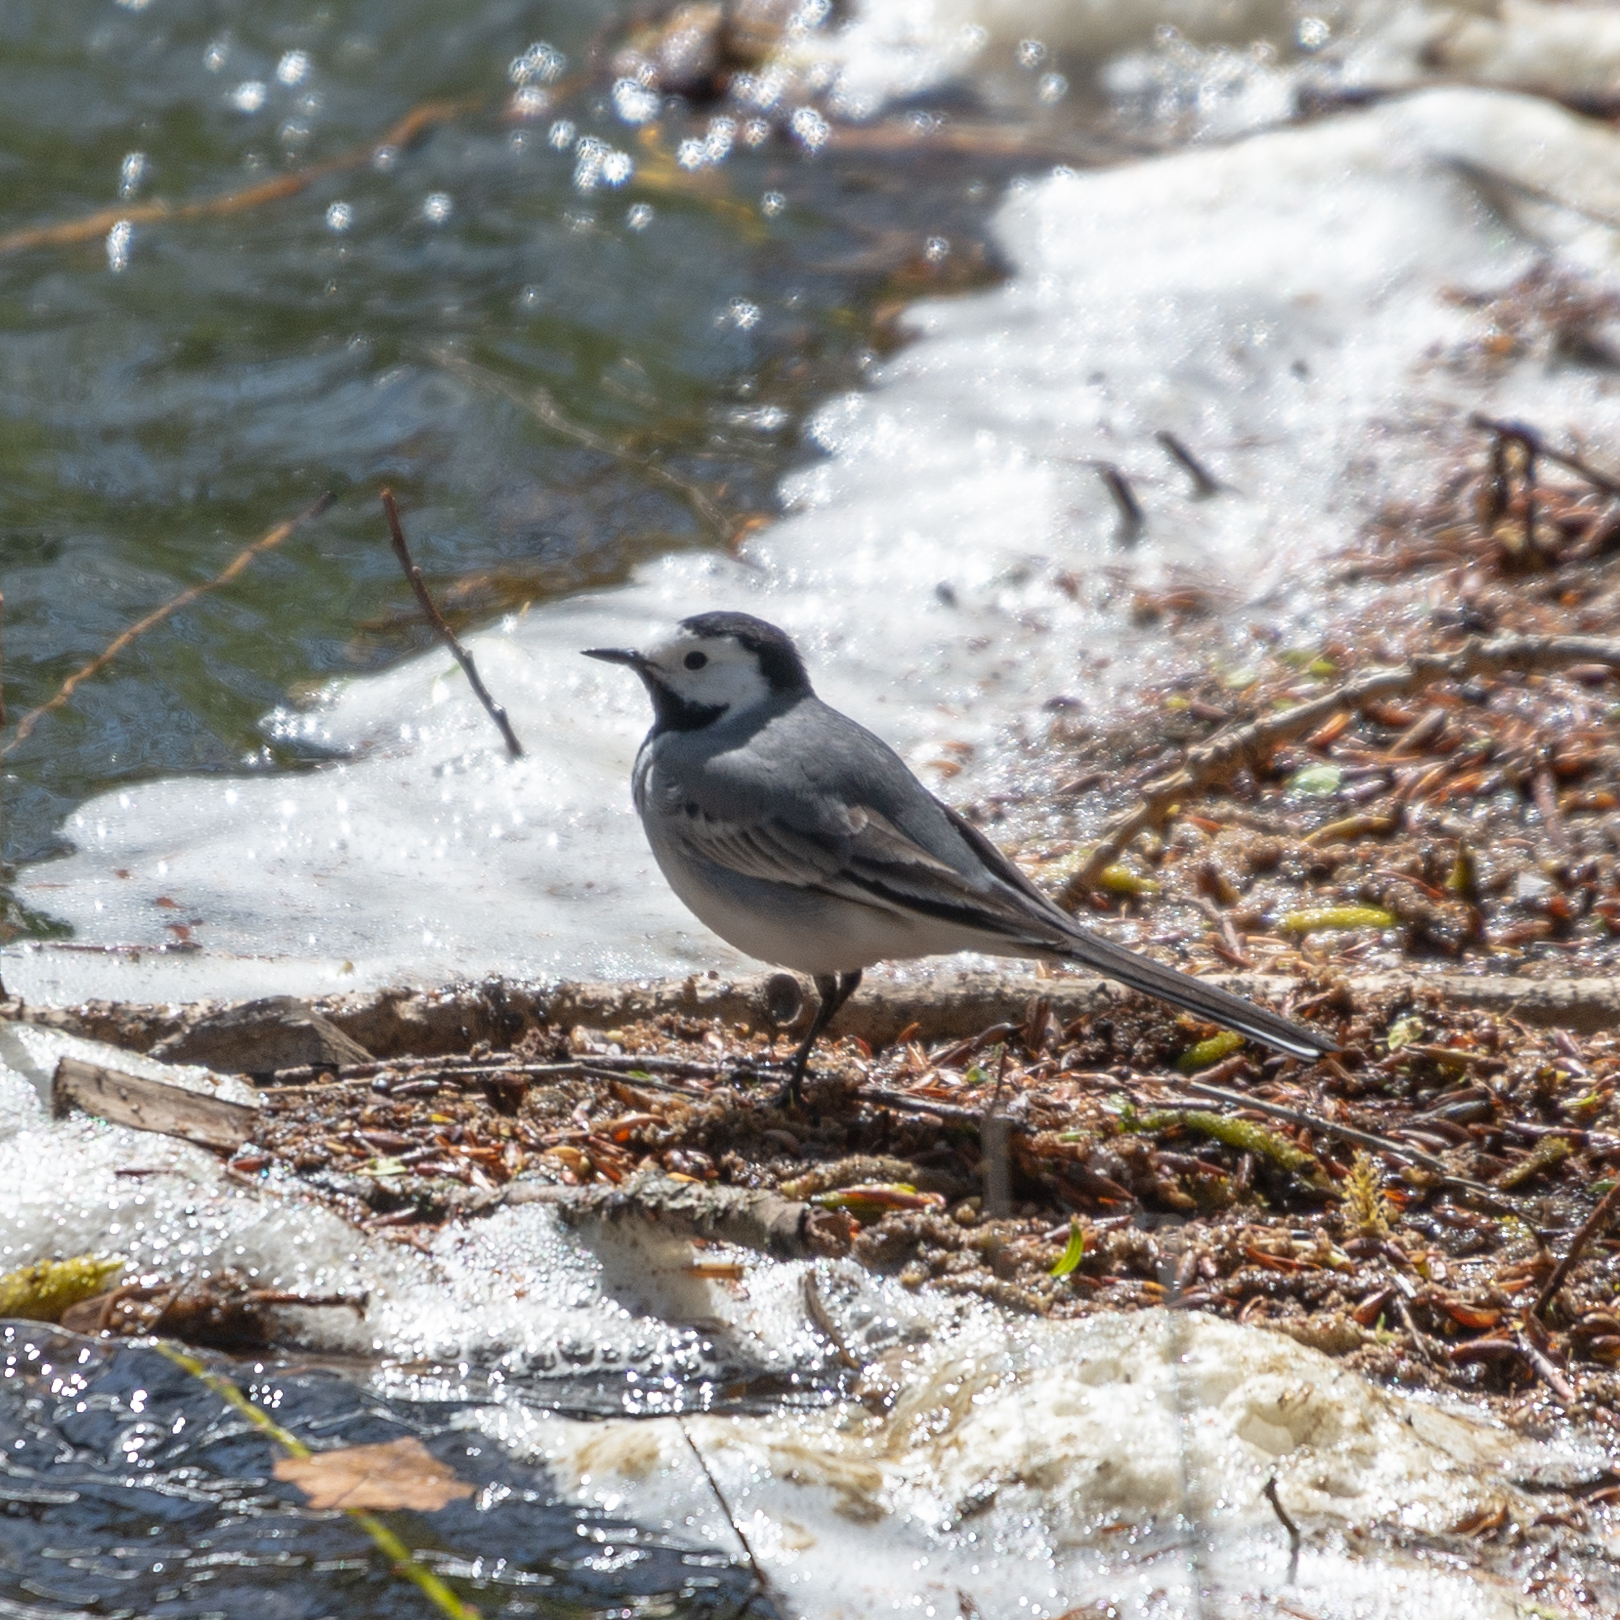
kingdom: Animalia
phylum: Chordata
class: Aves
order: Passeriformes
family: Motacillidae
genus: Motacilla
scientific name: Motacilla alba
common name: White wagtail
